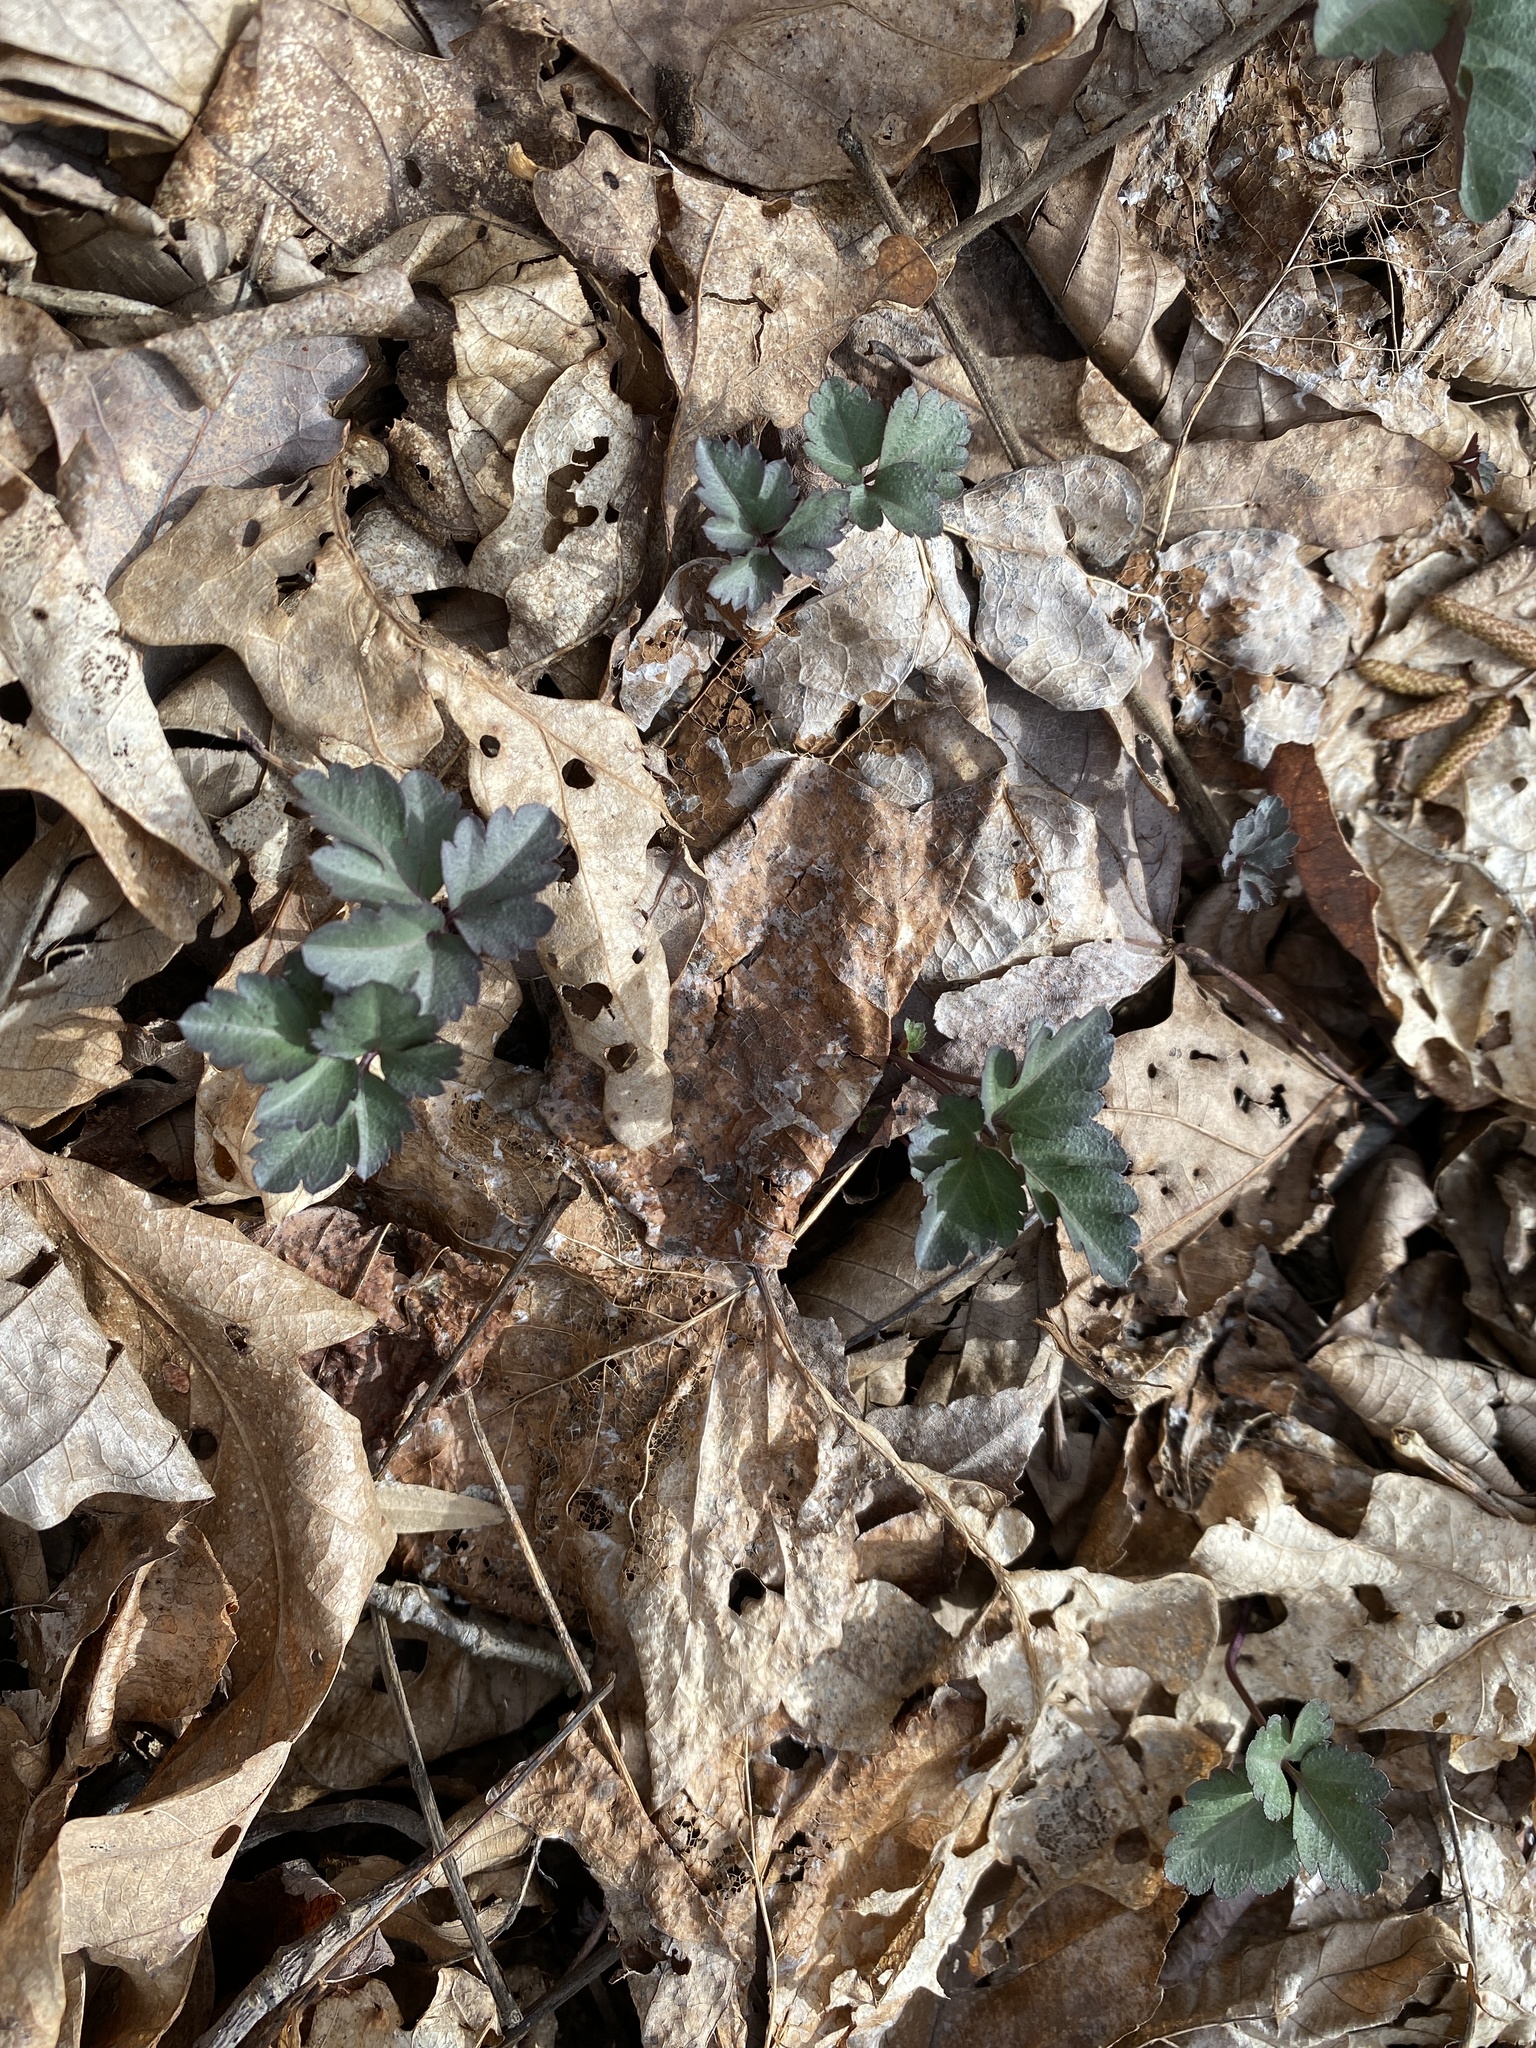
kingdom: Plantae
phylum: Tracheophyta
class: Magnoliopsida
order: Brassicales
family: Brassicaceae
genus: Cardamine
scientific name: Cardamine angustata
